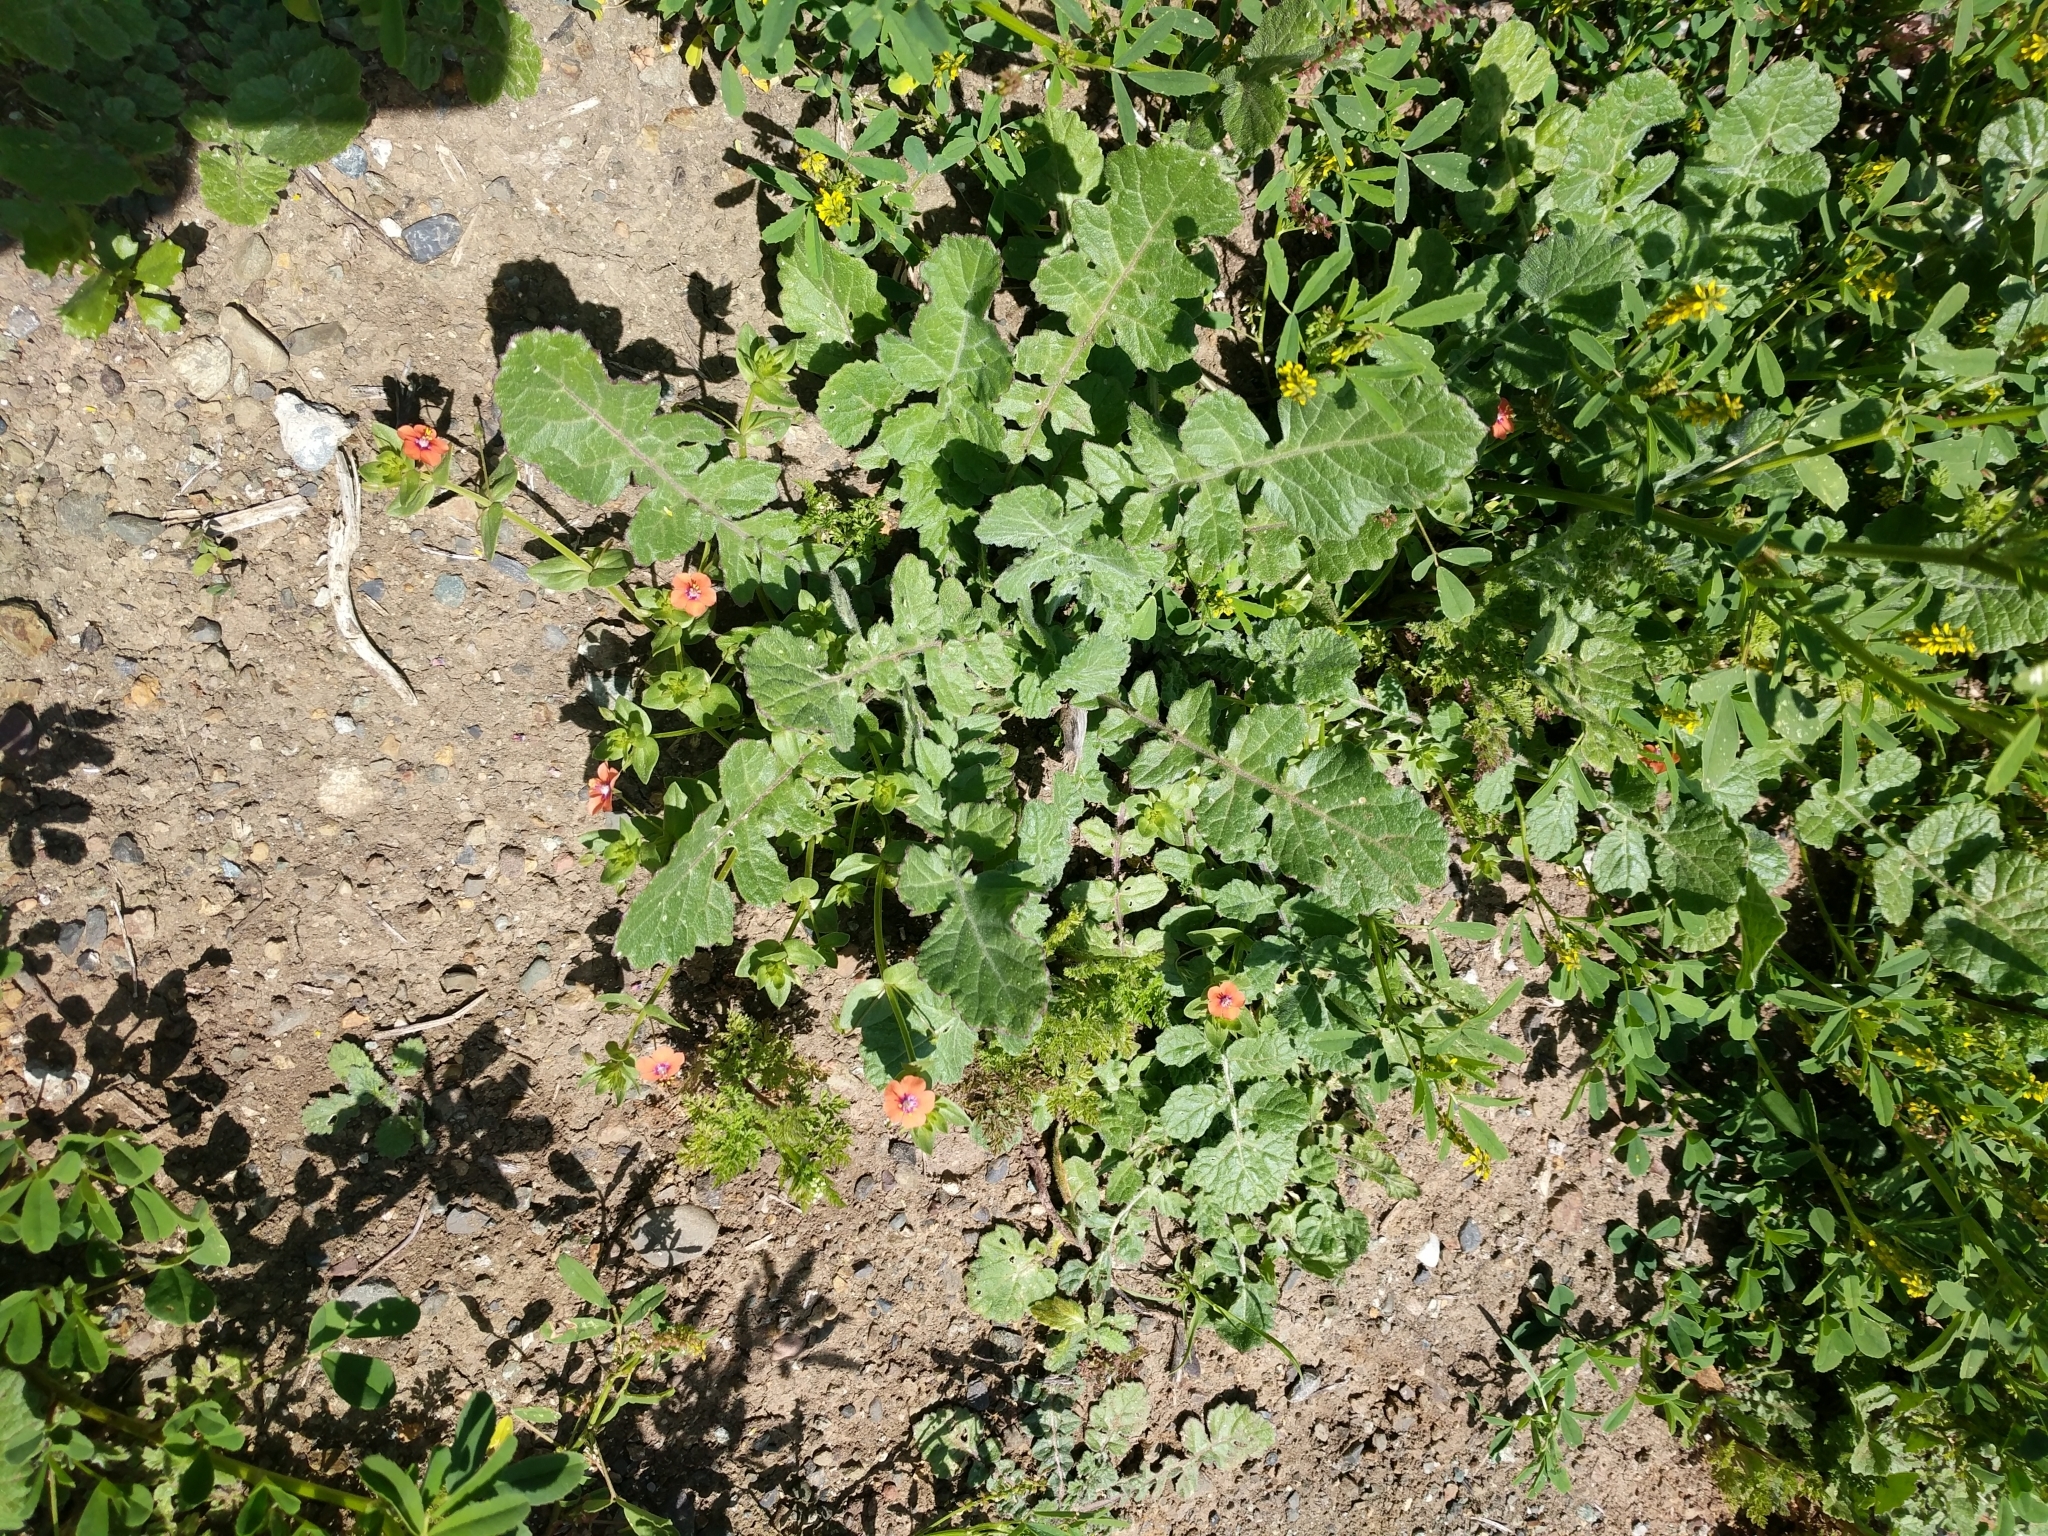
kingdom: Plantae
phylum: Tracheophyta
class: Magnoliopsida
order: Ericales
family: Primulaceae
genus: Lysimachia
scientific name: Lysimachia arvensis
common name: Scarlet pimpernel
